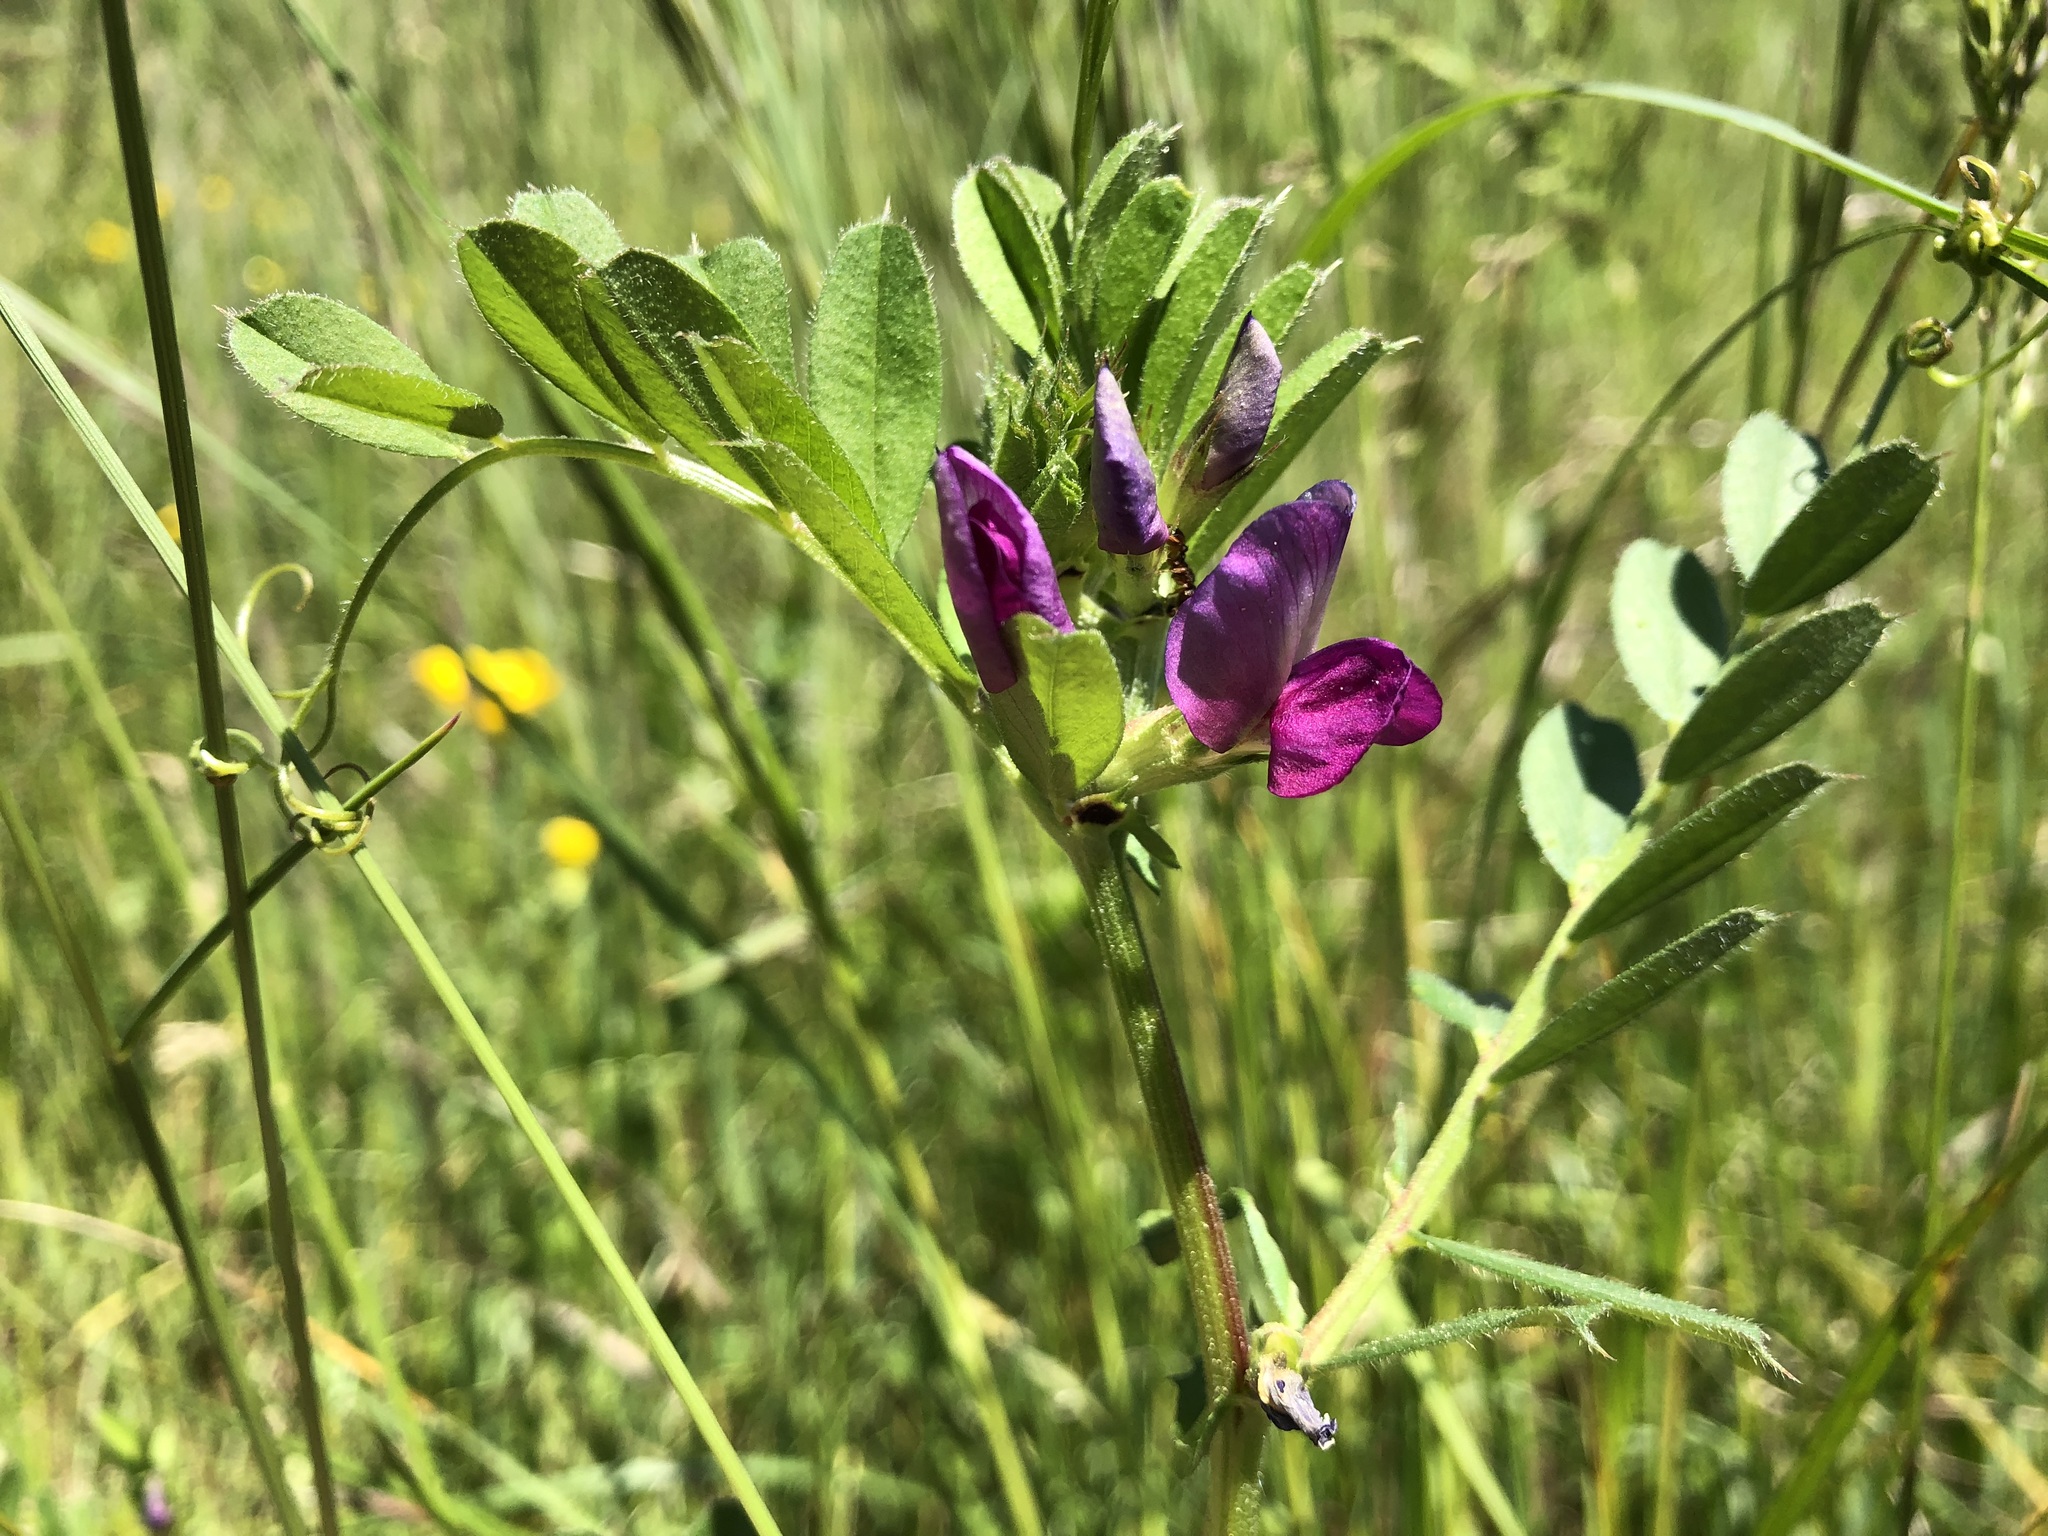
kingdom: Plantae
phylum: Tracheophyta
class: Magnoliopsida
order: Fabales
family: Fabaceae
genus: Vicia
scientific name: Vicia sativa
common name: Garden vetch
